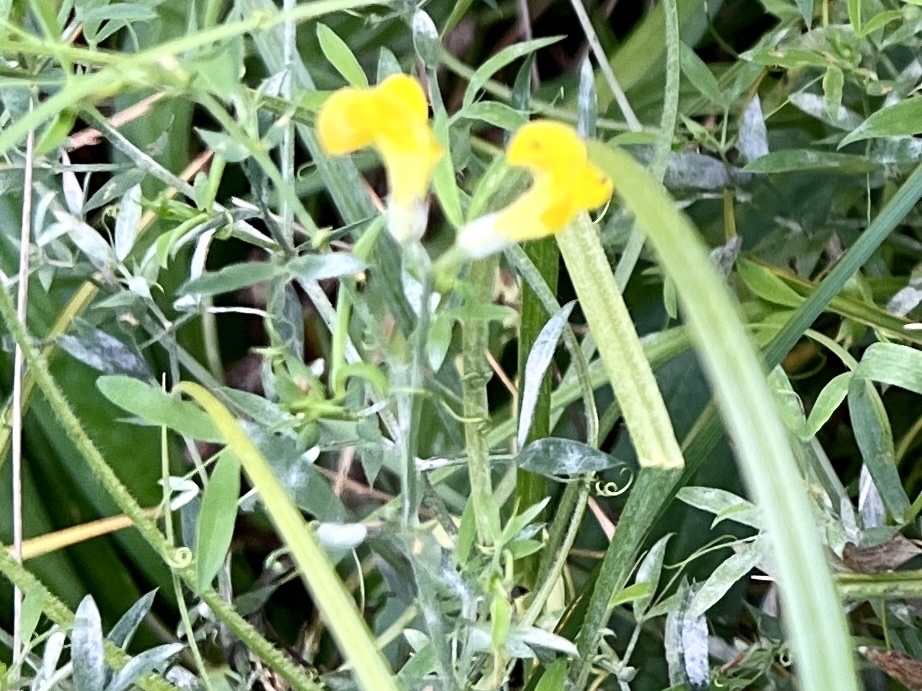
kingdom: Plantae
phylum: Tracheophyta
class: Magnoliopsida
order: Fabales
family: Fabaceae
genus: Lathyrus
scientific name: Lathyrus pratensis
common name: Meadow vetchling
